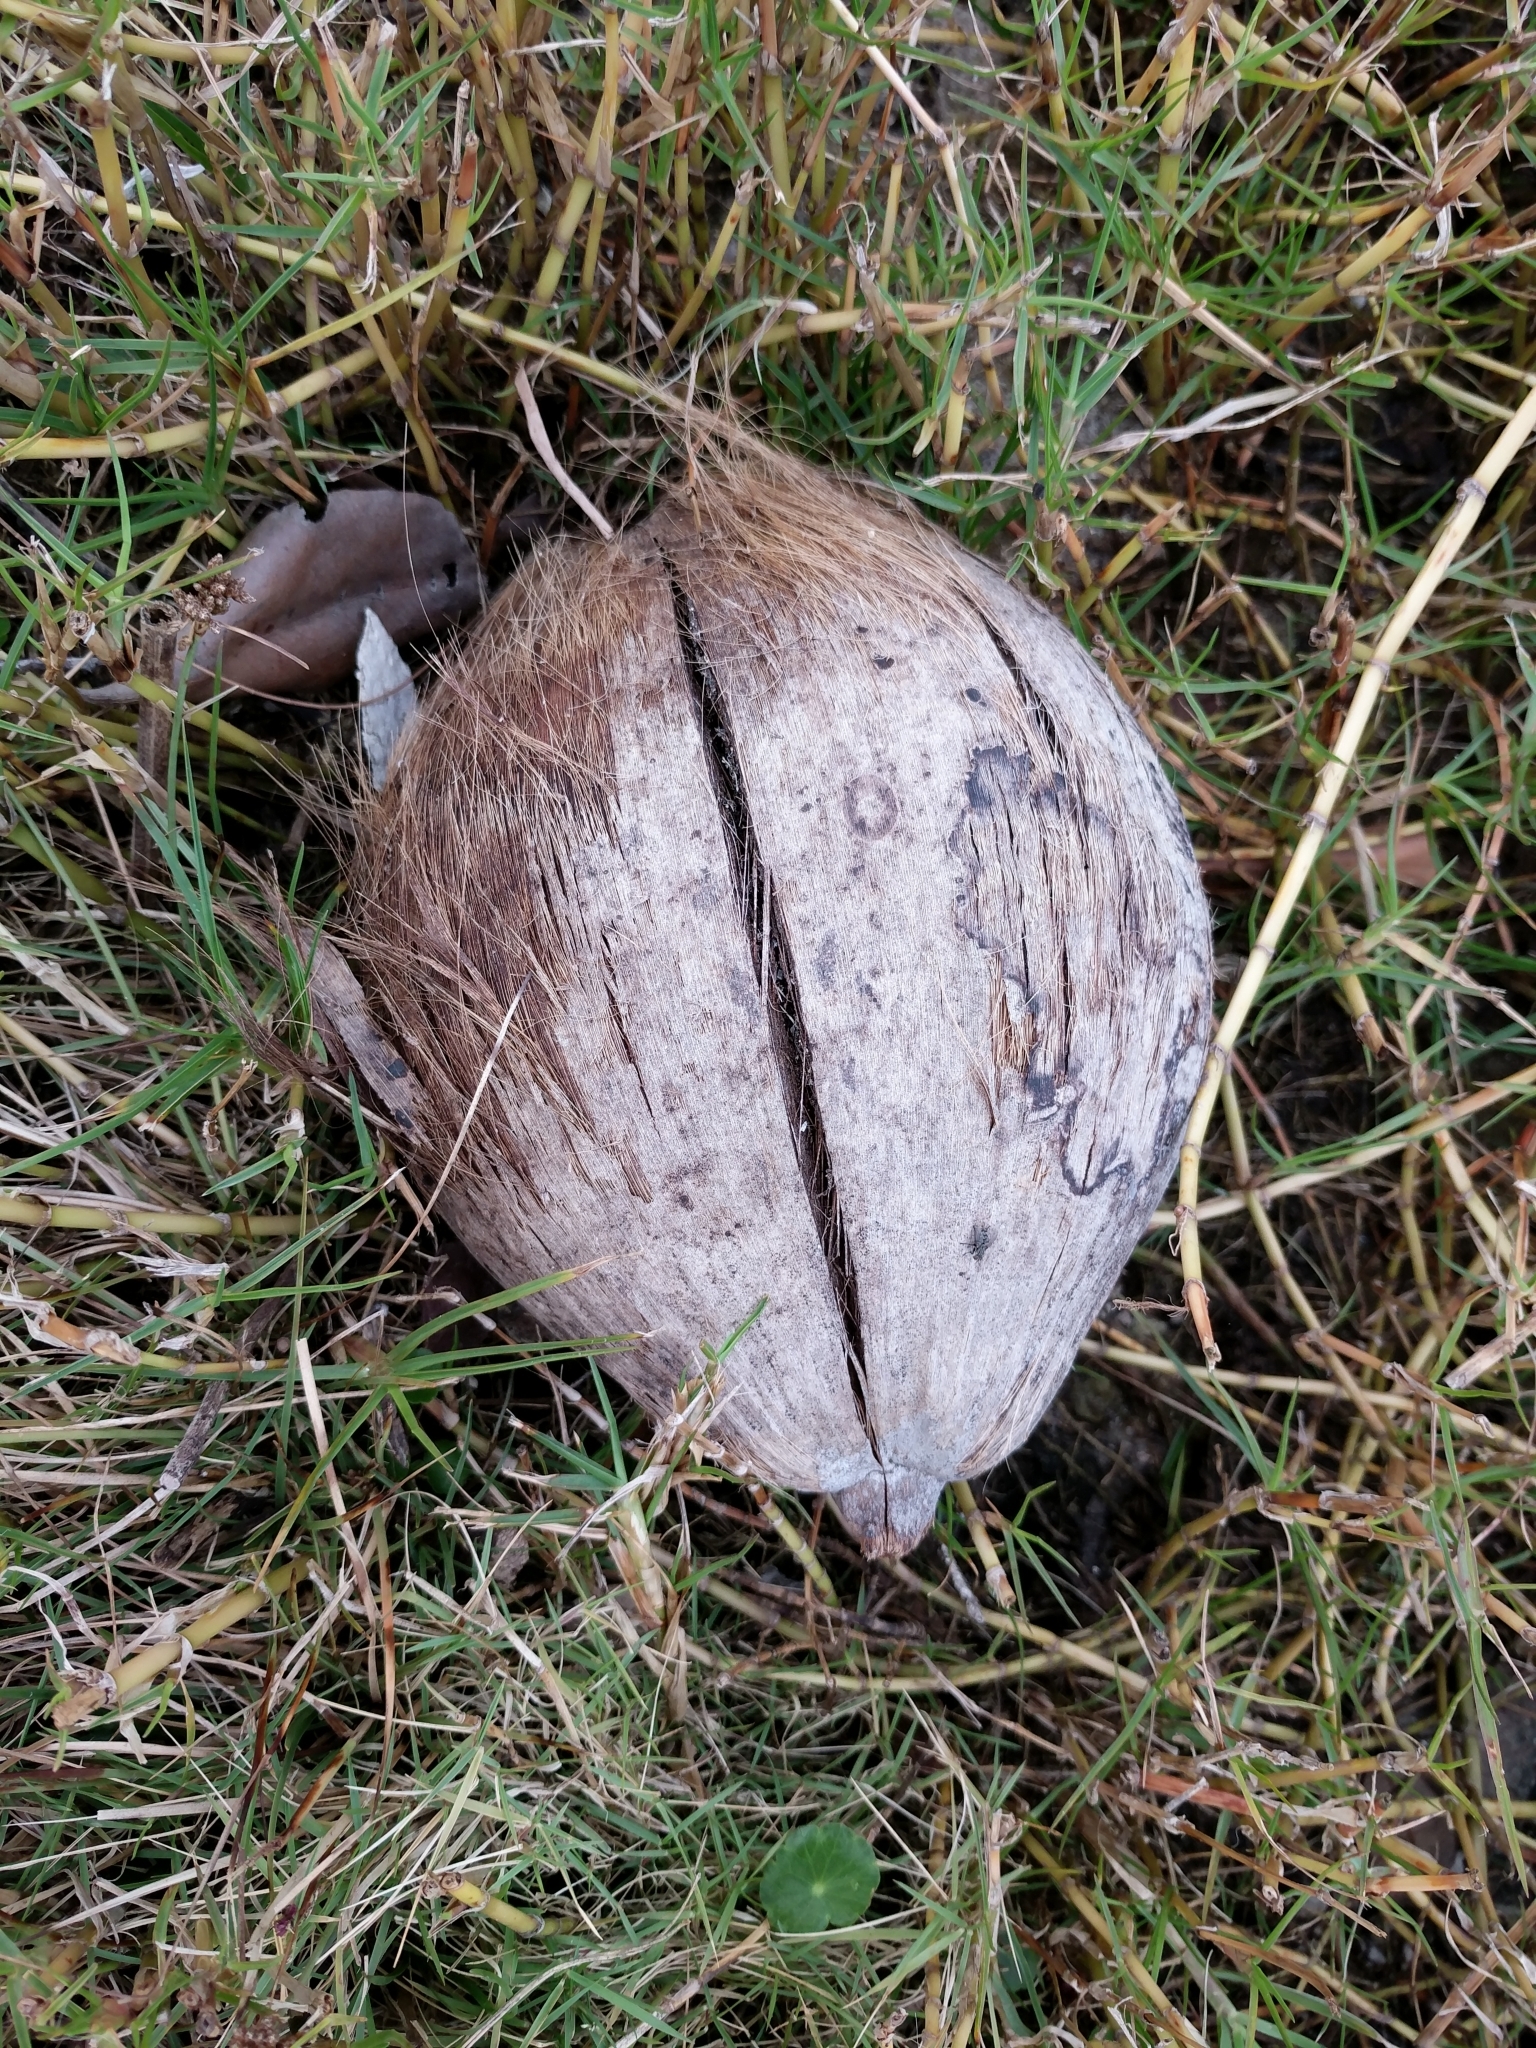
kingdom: Plantae
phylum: Tracheophyta
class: Liliopsida
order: Arecales
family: Arecaceae
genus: Cocos
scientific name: Cocos nucifera
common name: Coconut palm
